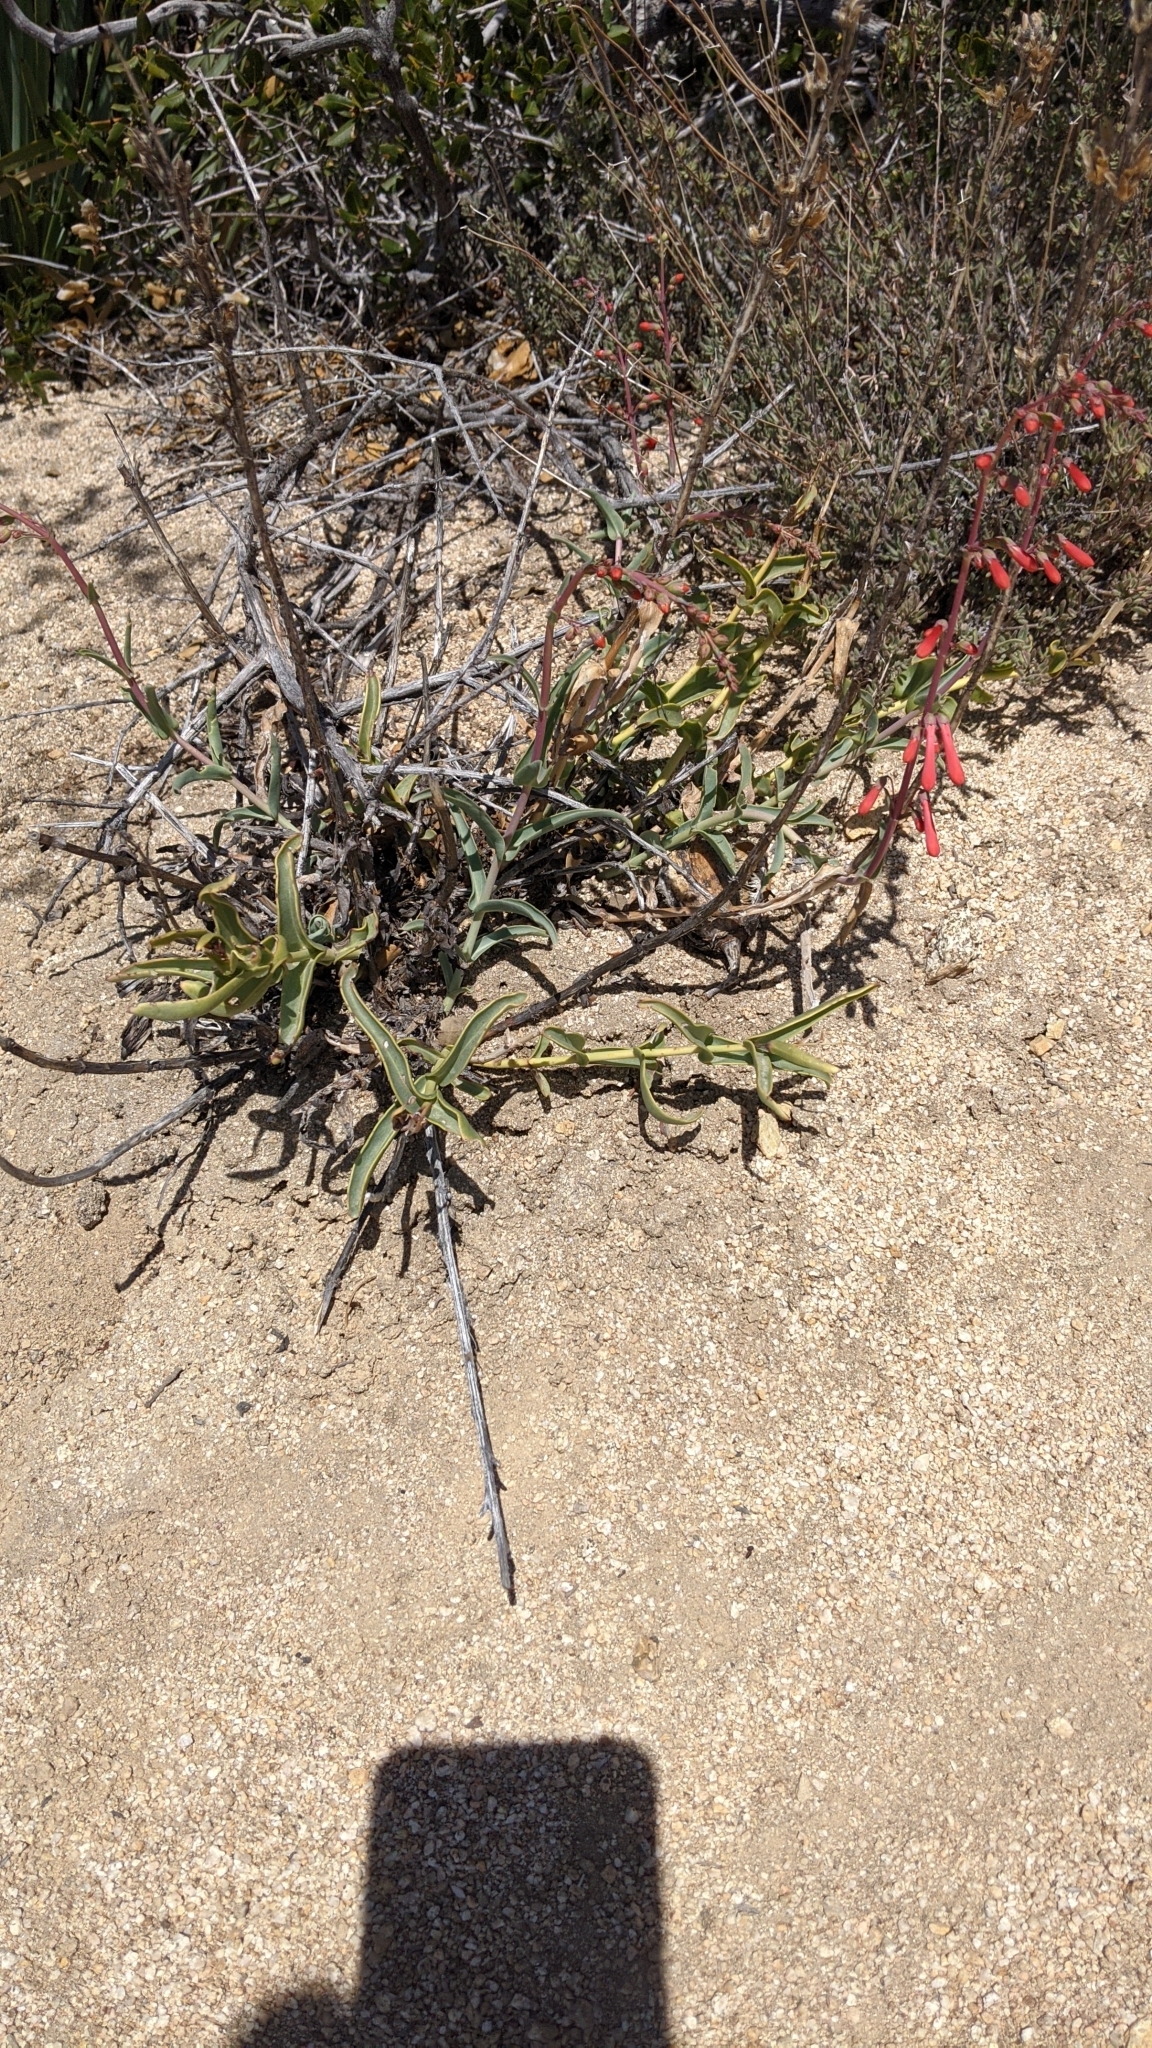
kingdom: Plantae
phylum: Tracheophyta
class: Magnoliopsida
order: Lamiales
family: Plantaginaceae
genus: Penstemon
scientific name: Penstemon centranthifolius
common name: Scarlet bugler
